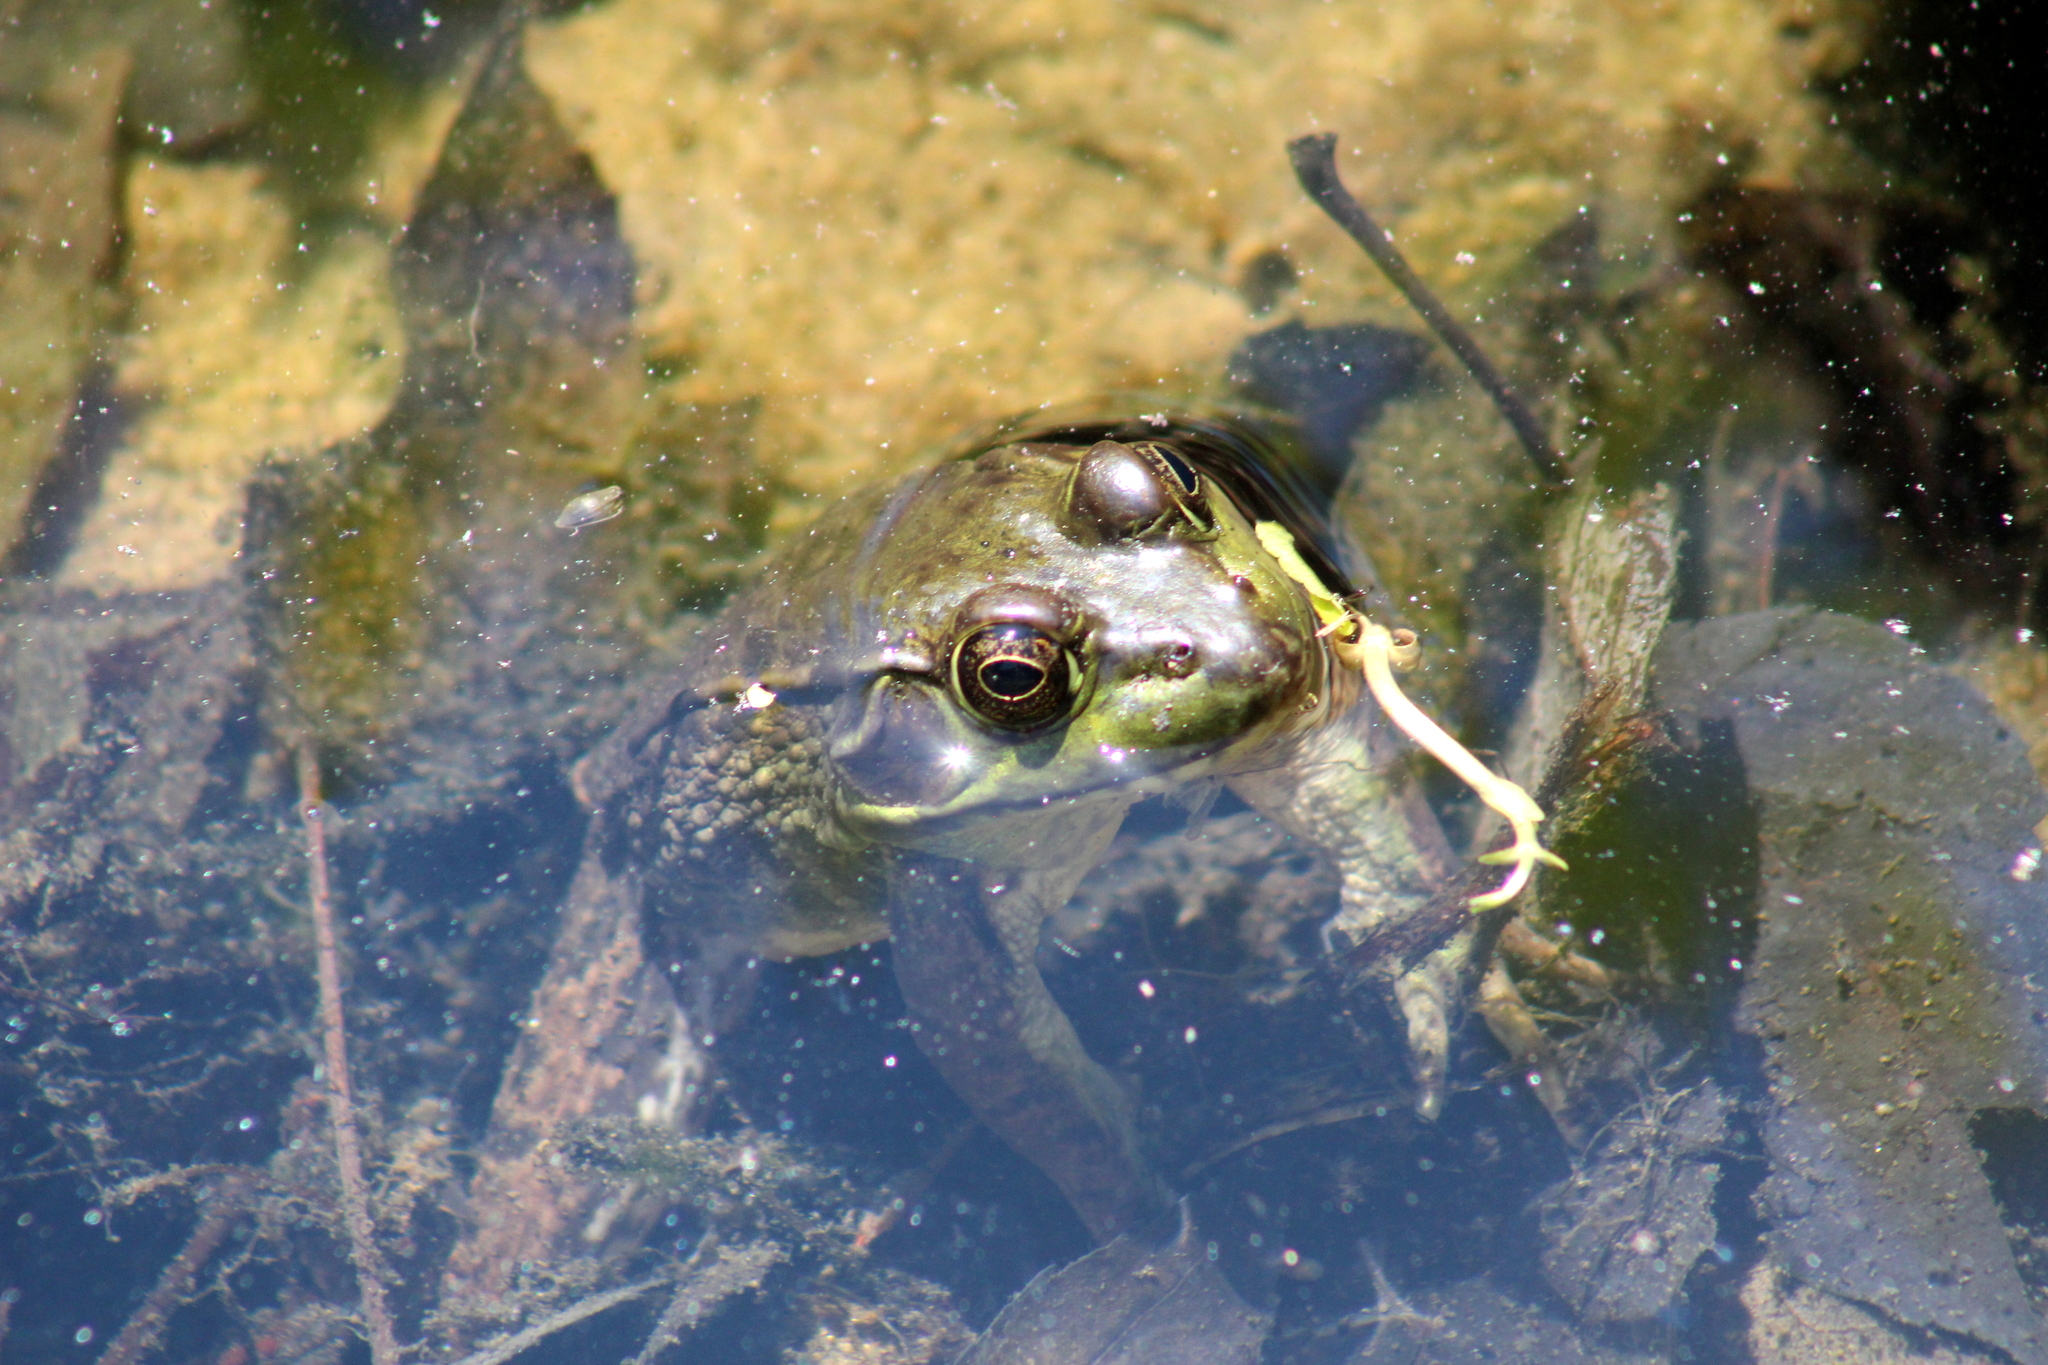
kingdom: Animalia
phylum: Chordata
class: Amphibia
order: Anura
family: Ranidae
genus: Lithobates
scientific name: Lithobates clamitans
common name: Green frog
